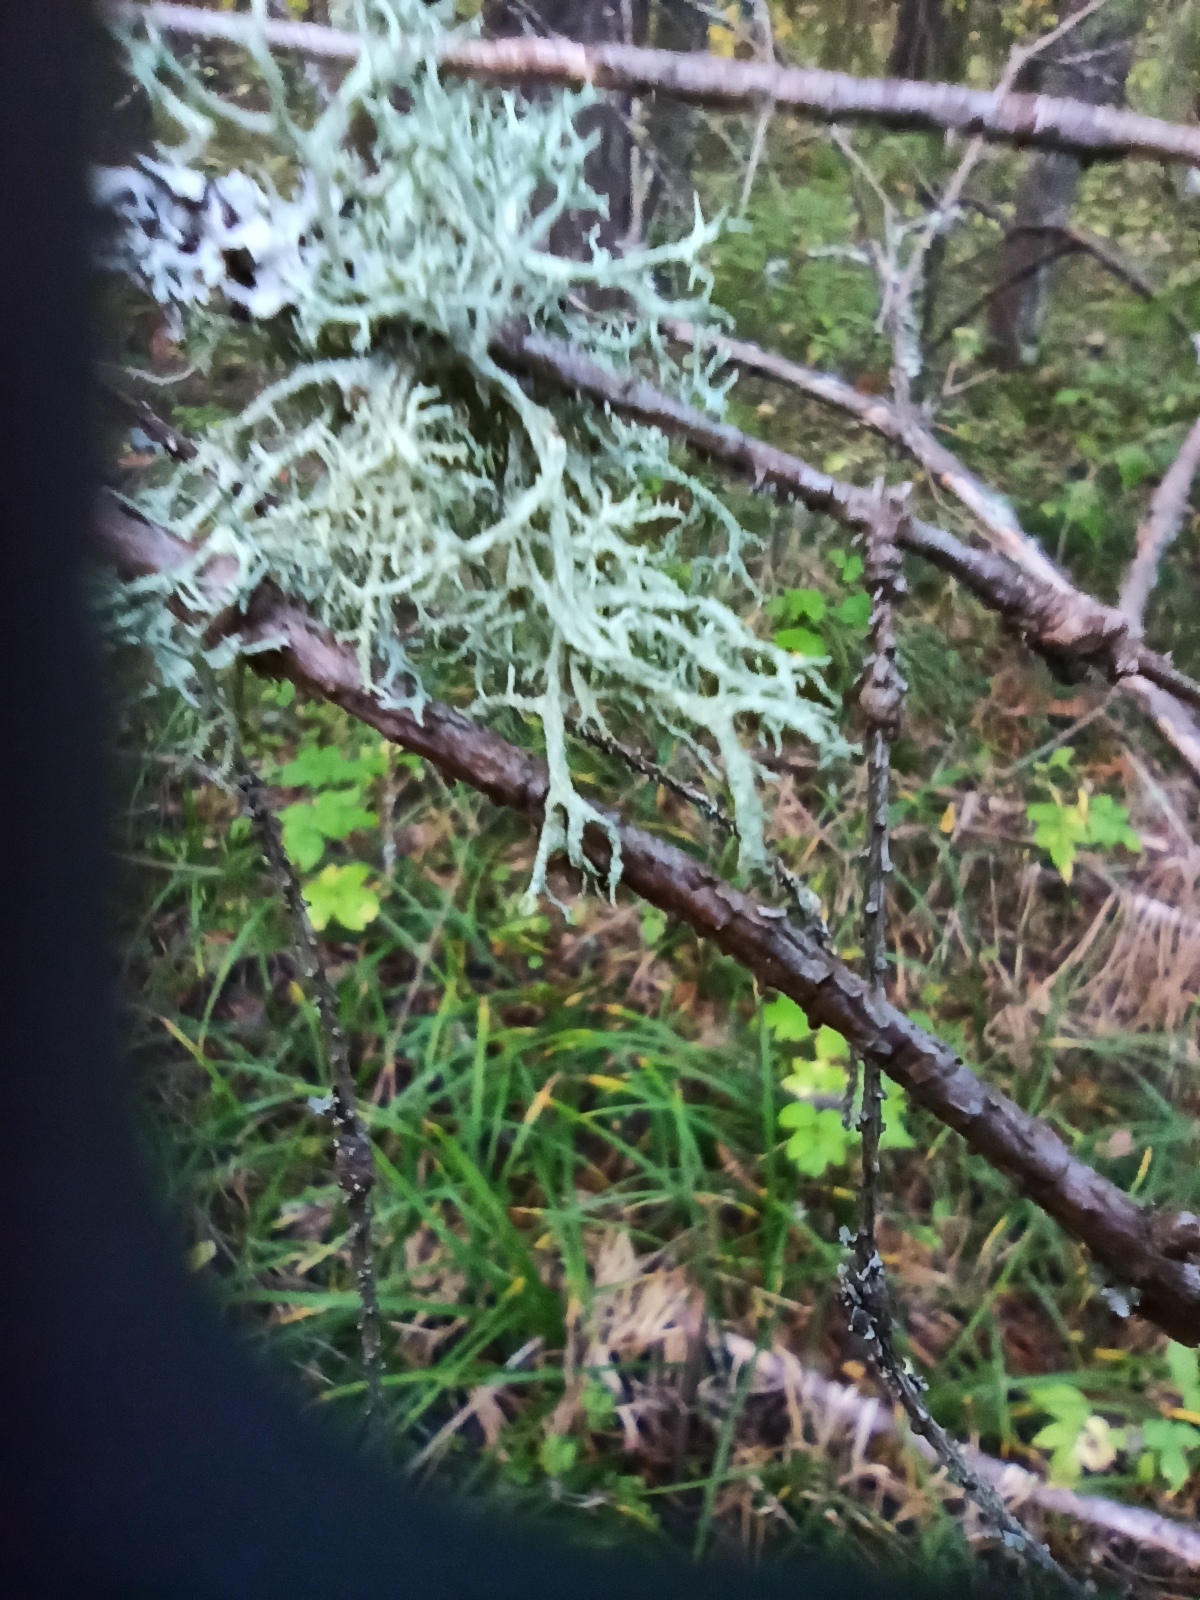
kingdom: Fungi
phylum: Ascomycota
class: Lecanoromycetes
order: Lecanorales
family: Parmeliaceae
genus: Evernia
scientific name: Evernia prunastri
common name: Oak moss
